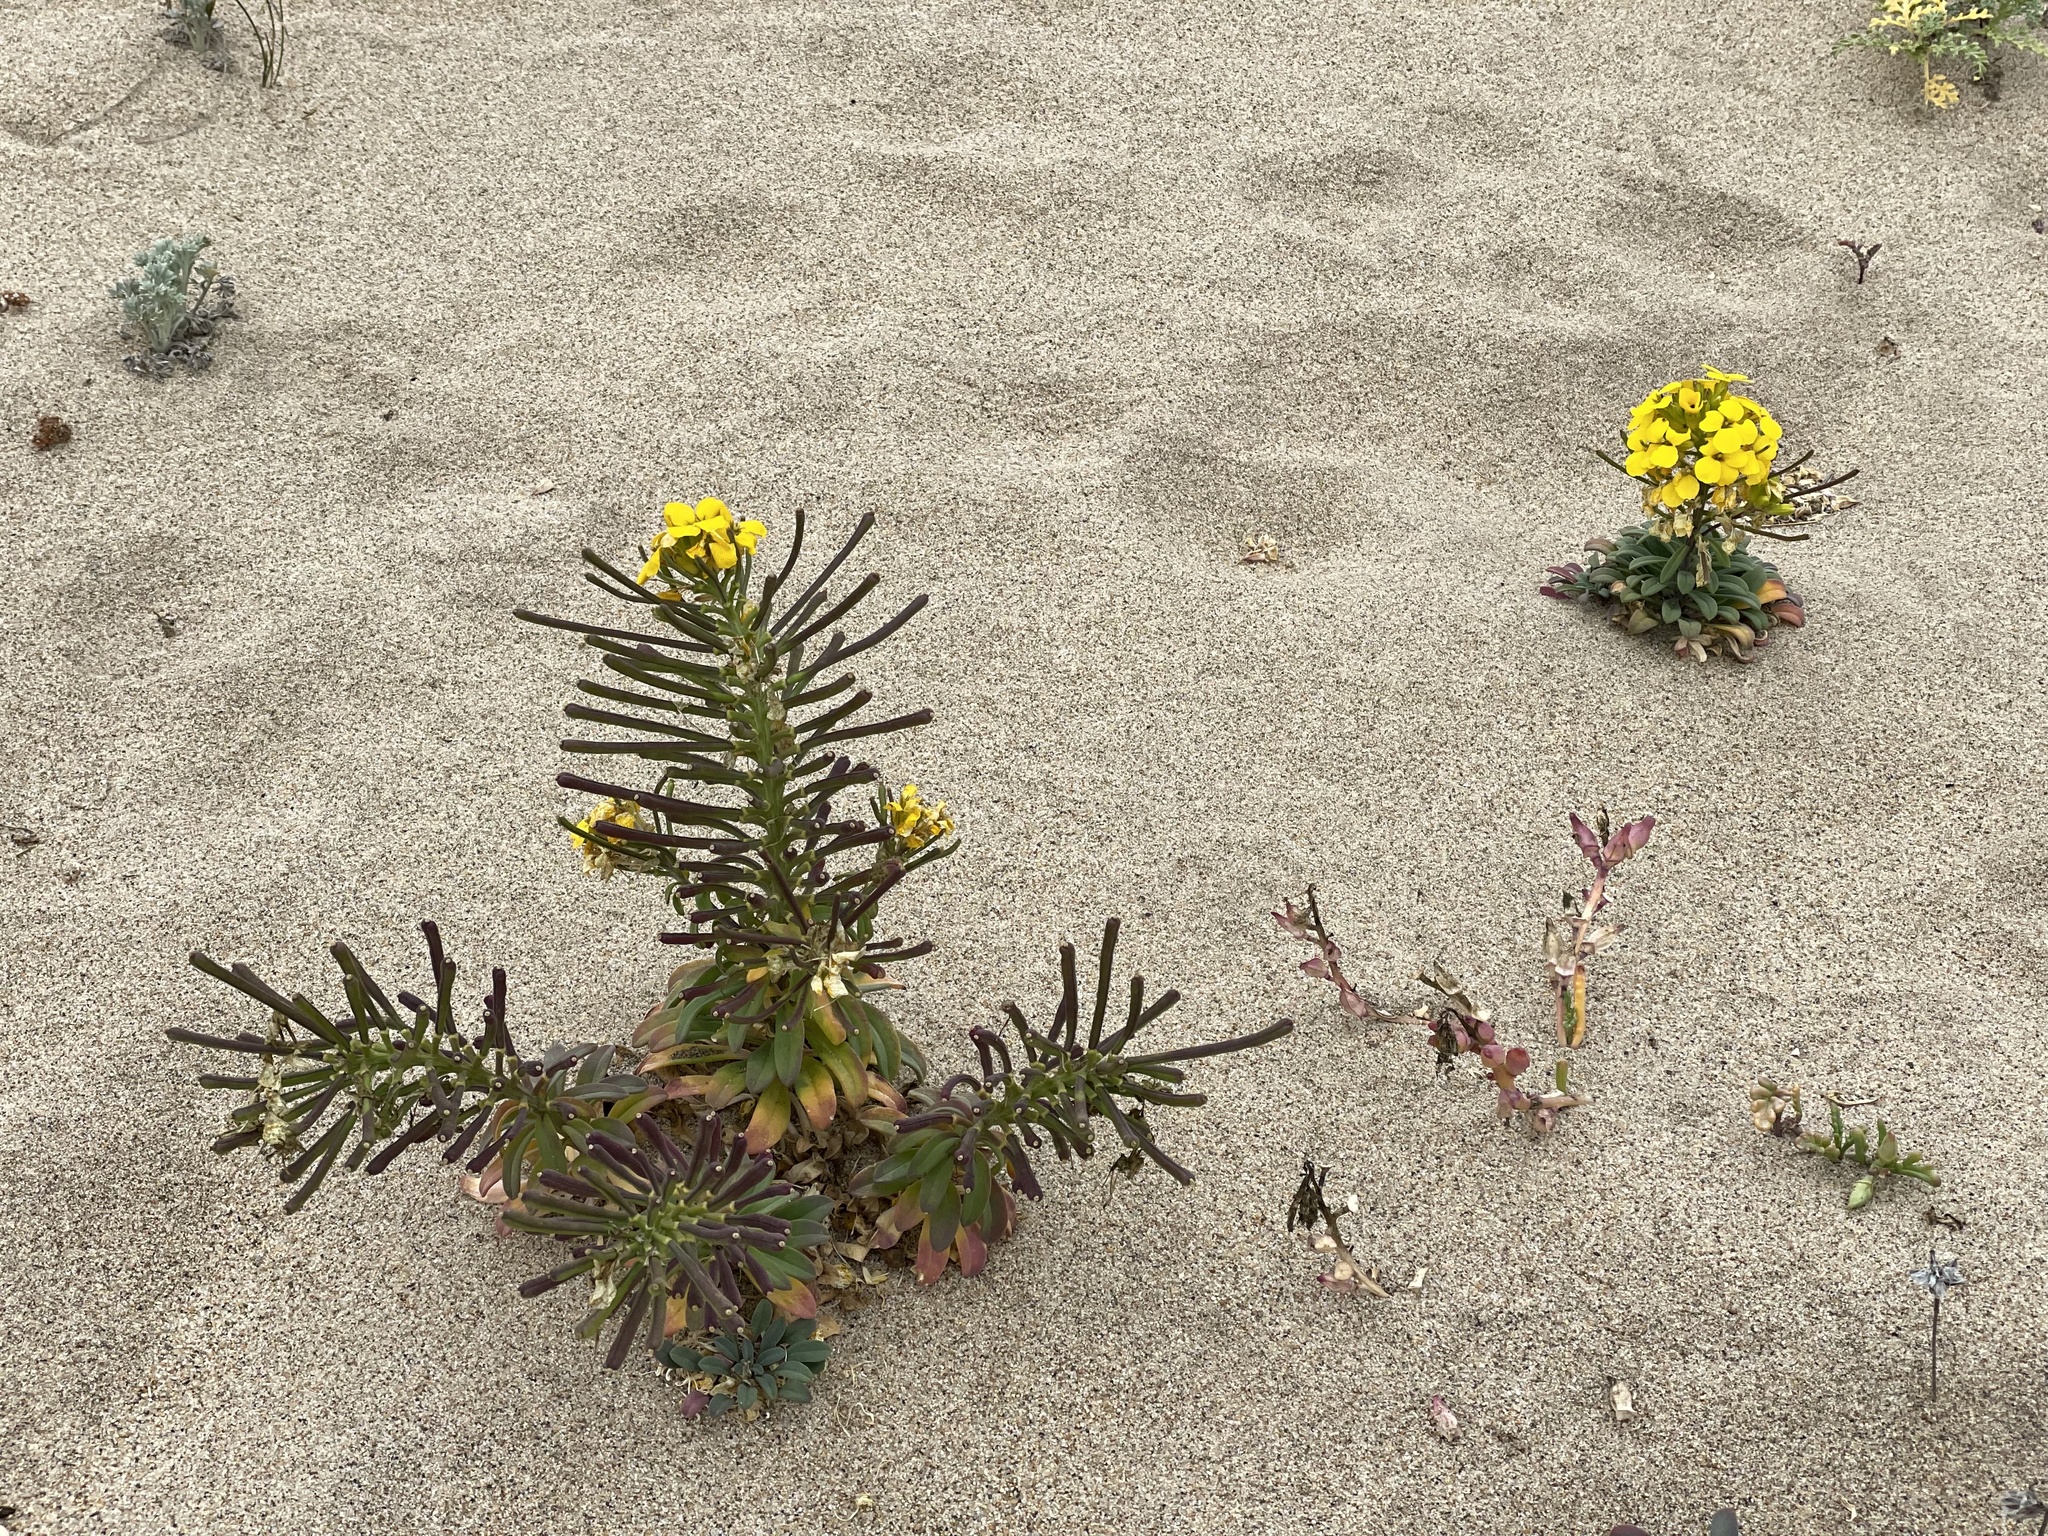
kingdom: Plantae
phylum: Tracheophyta
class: Magnoliopsida
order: Brassicales
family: Brassicaceae
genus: Erysimum
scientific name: Erysimum menziesii
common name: Menzies's wallflower
